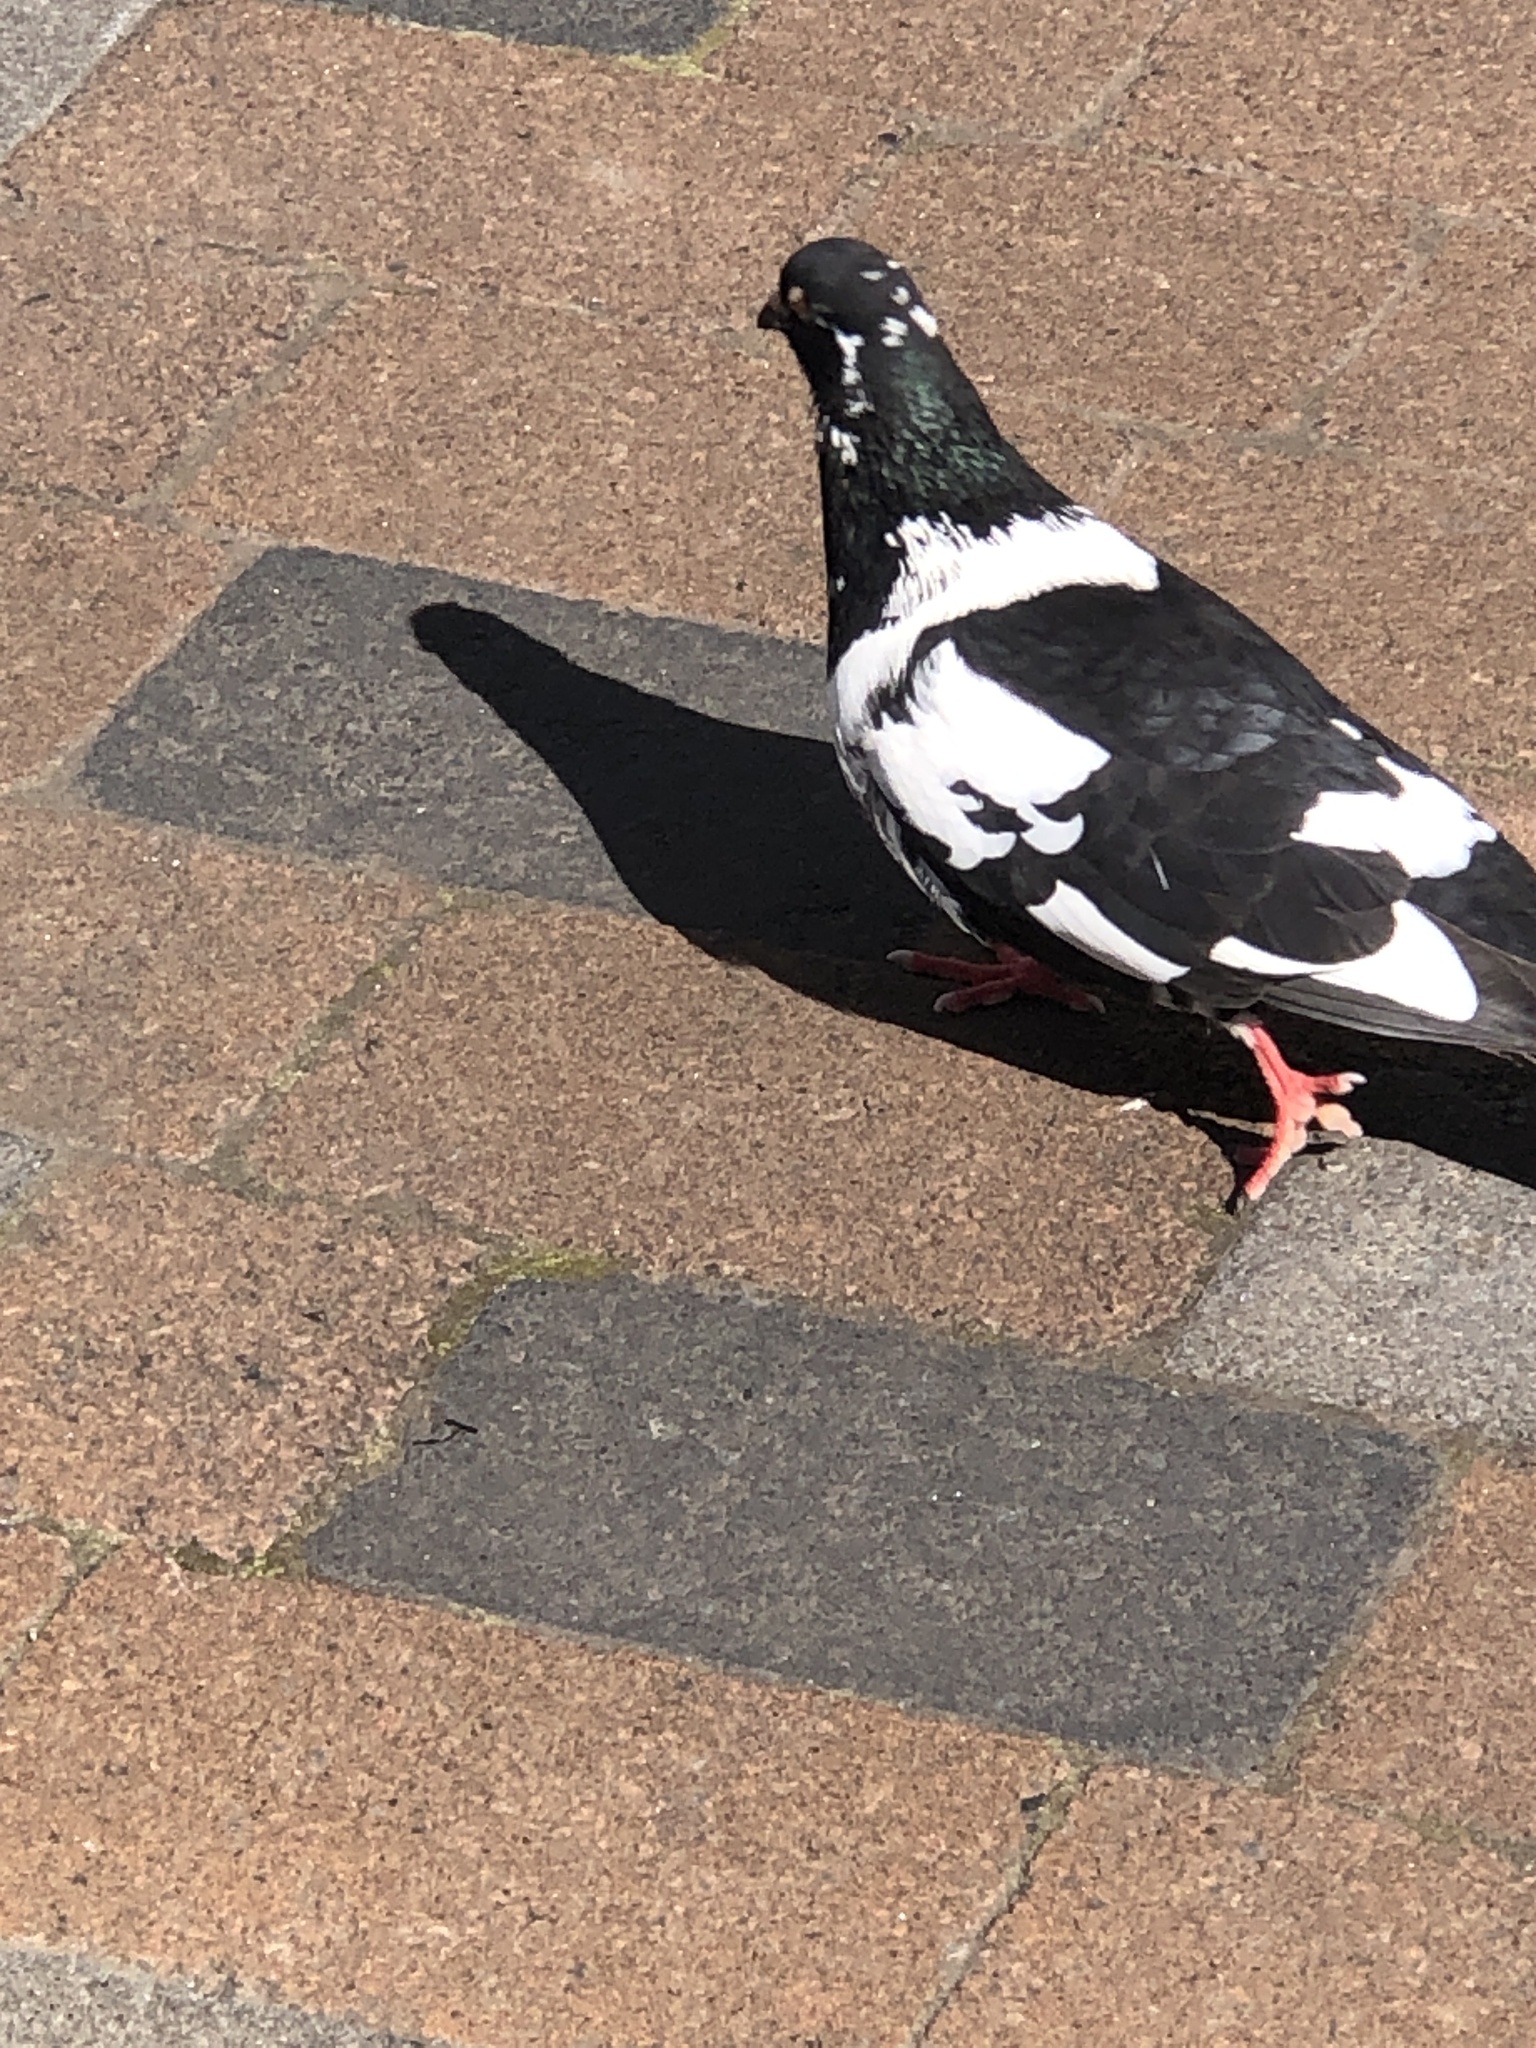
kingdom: Animalia
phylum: Chordata
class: Aves
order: Columbiformes
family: Columbidae
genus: Columba
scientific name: Columba livia
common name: Rock pigeon
